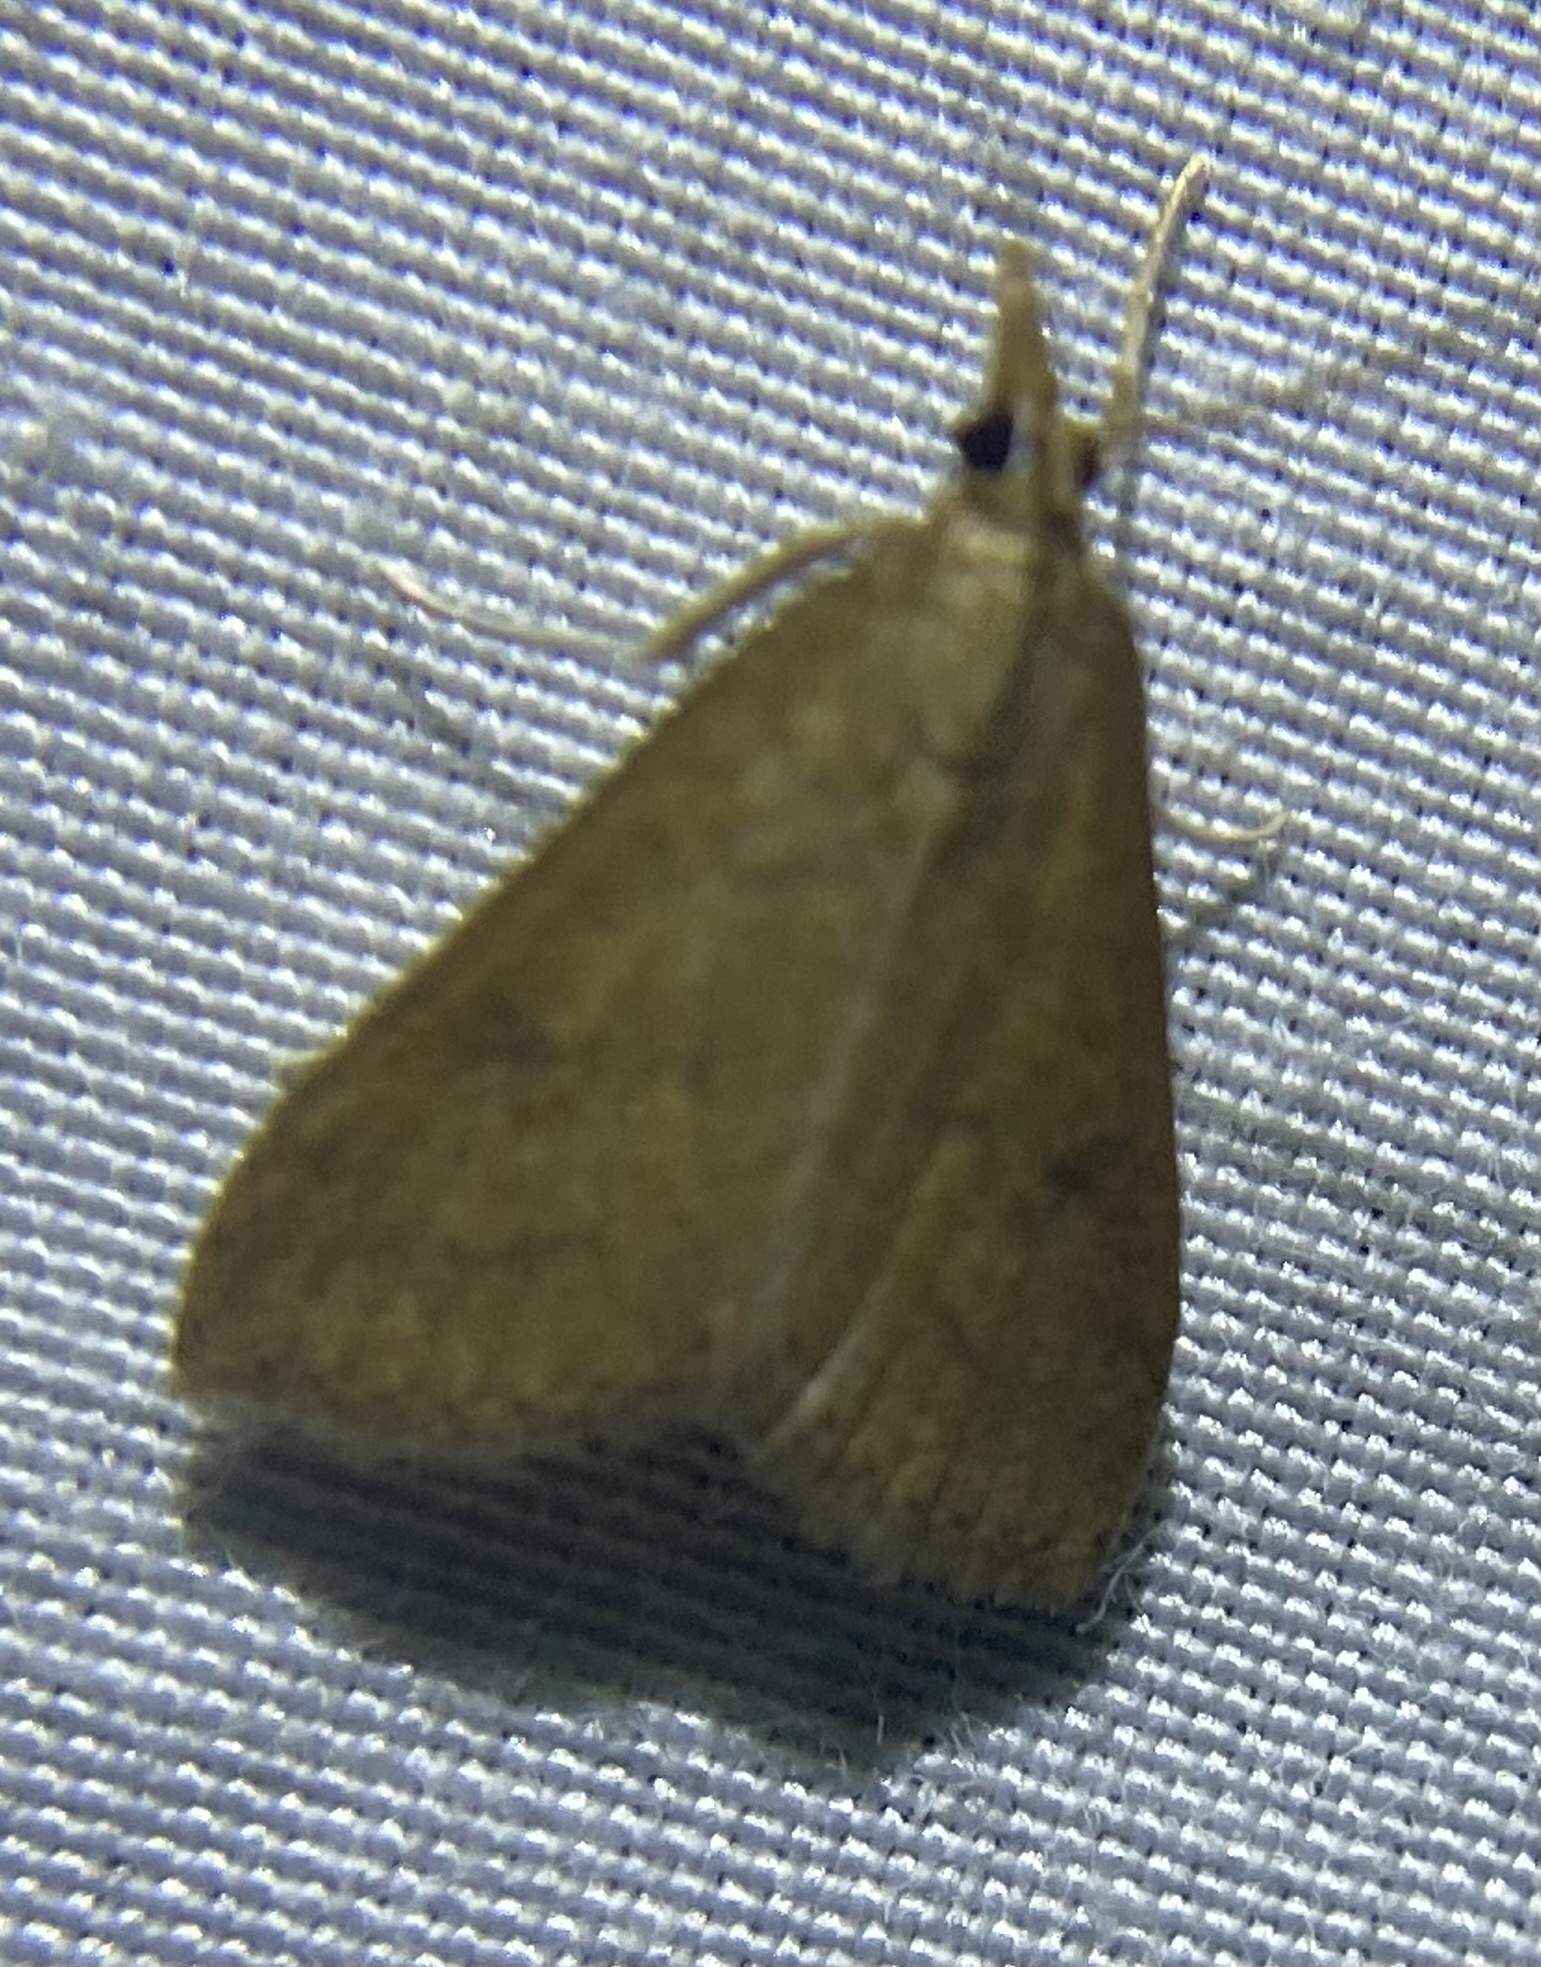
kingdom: Animalia
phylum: Arthropoda
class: Insecta
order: Lepidoptera
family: Crambidae
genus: Udea
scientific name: Udea rubigalis
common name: Celery leaftier moth
